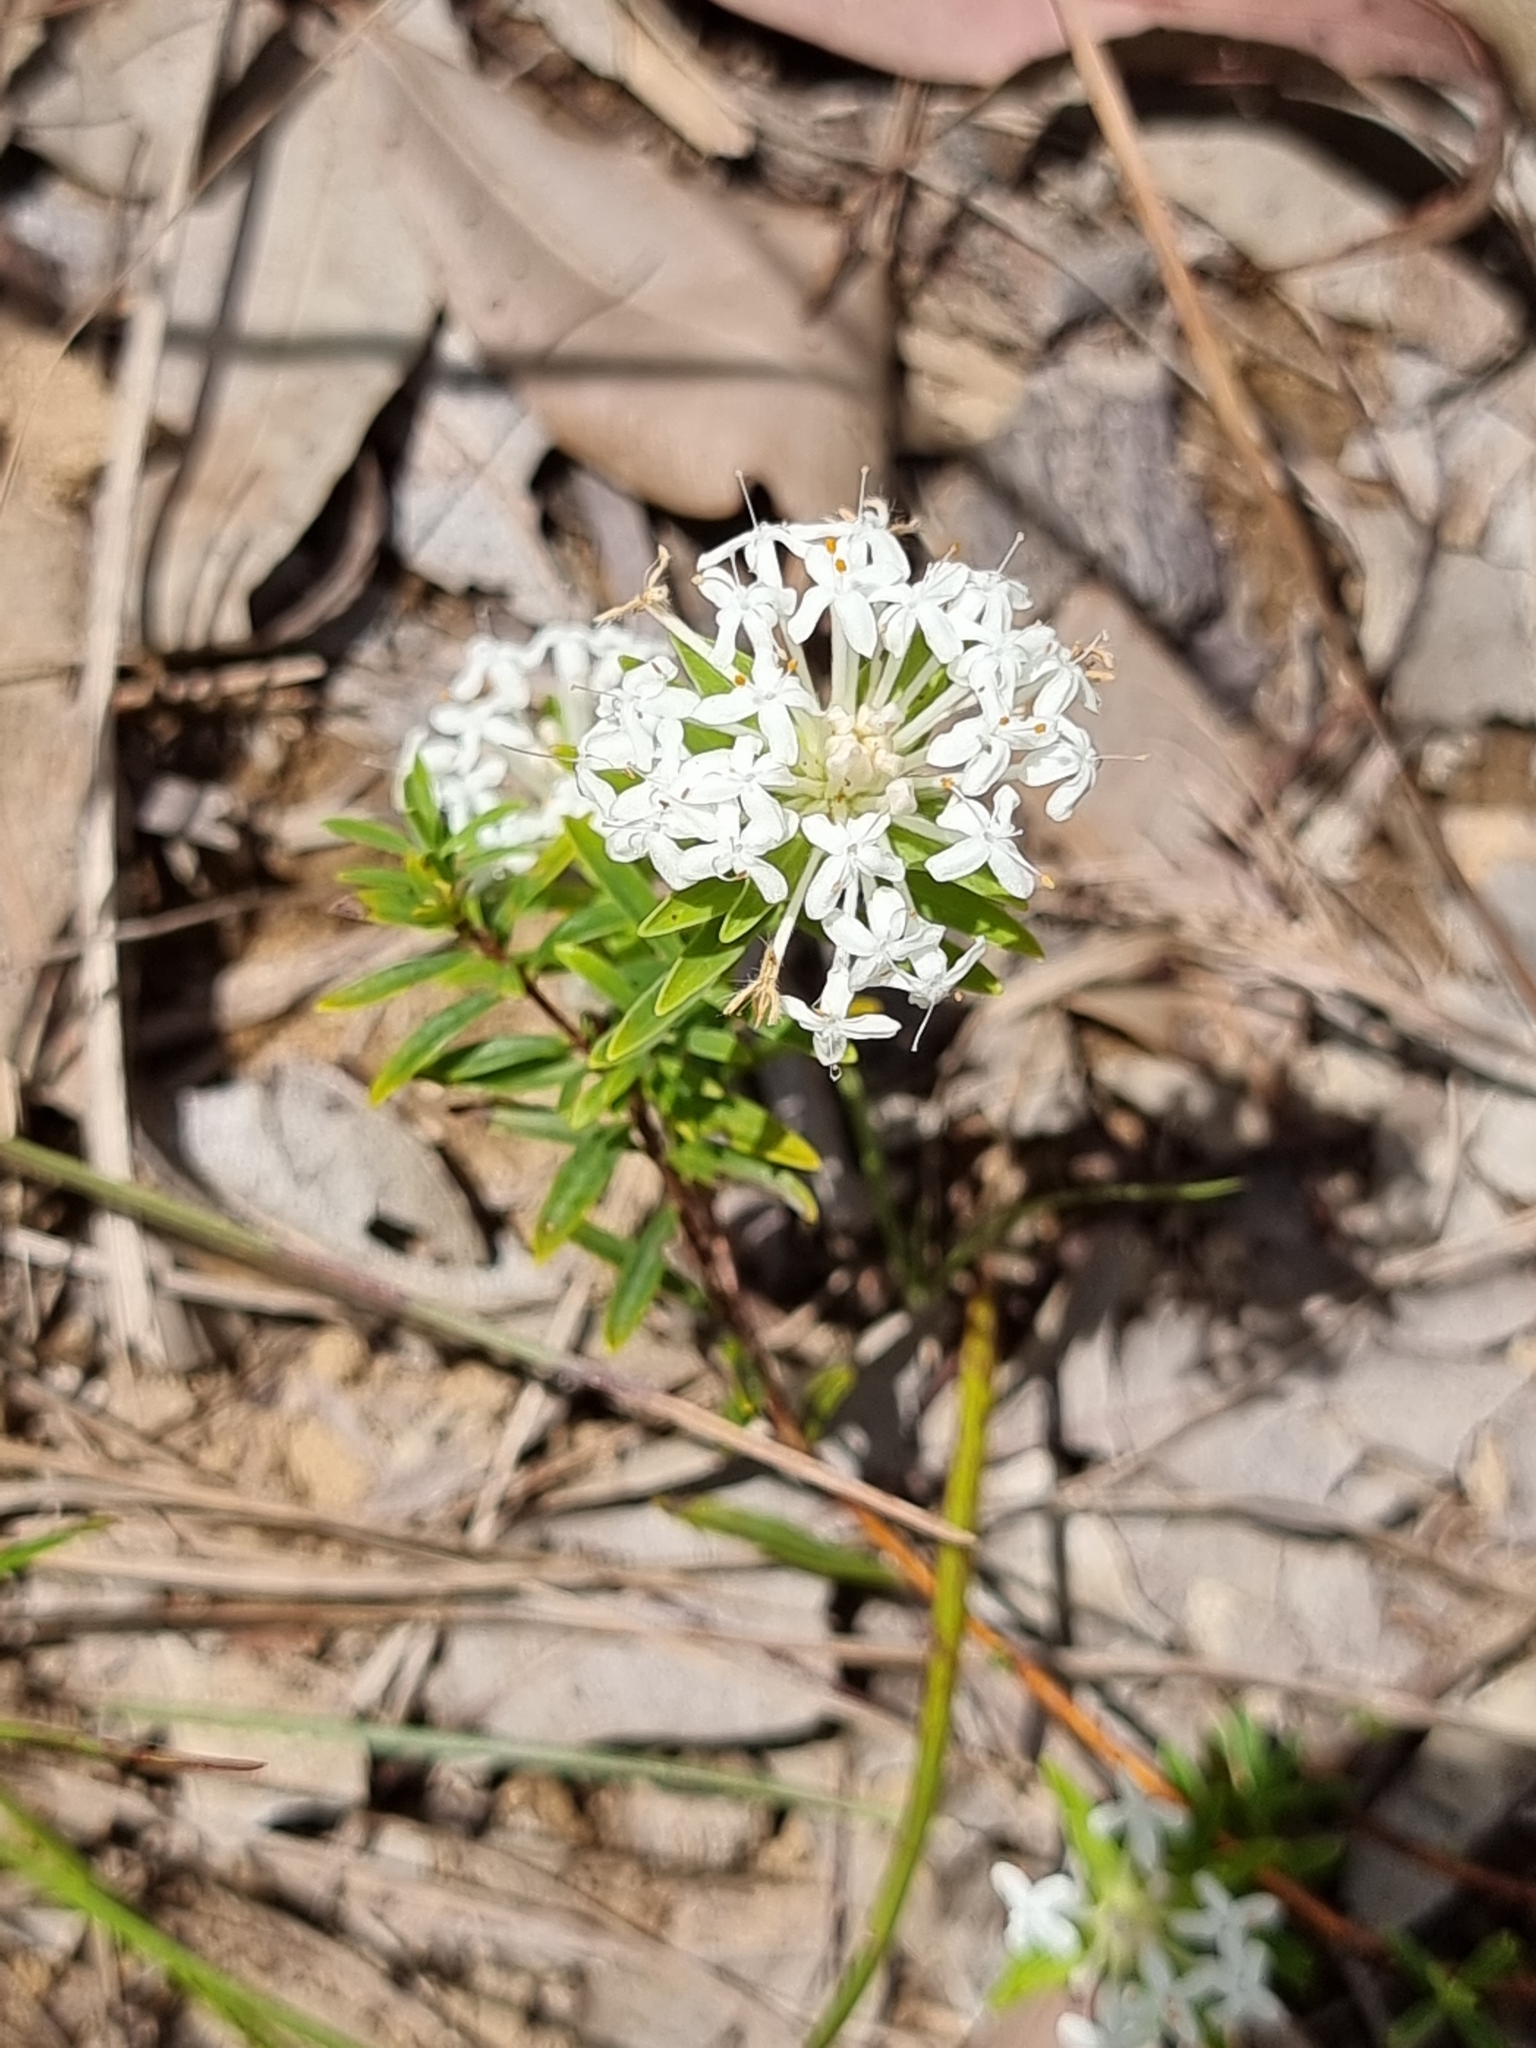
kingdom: Plantae
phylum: Tracheophyta
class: Magnoliopsida
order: Malvales
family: Thymelaeaceae
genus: Pimelea
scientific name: Pimelea linifolia
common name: Queen-of-the-bush
